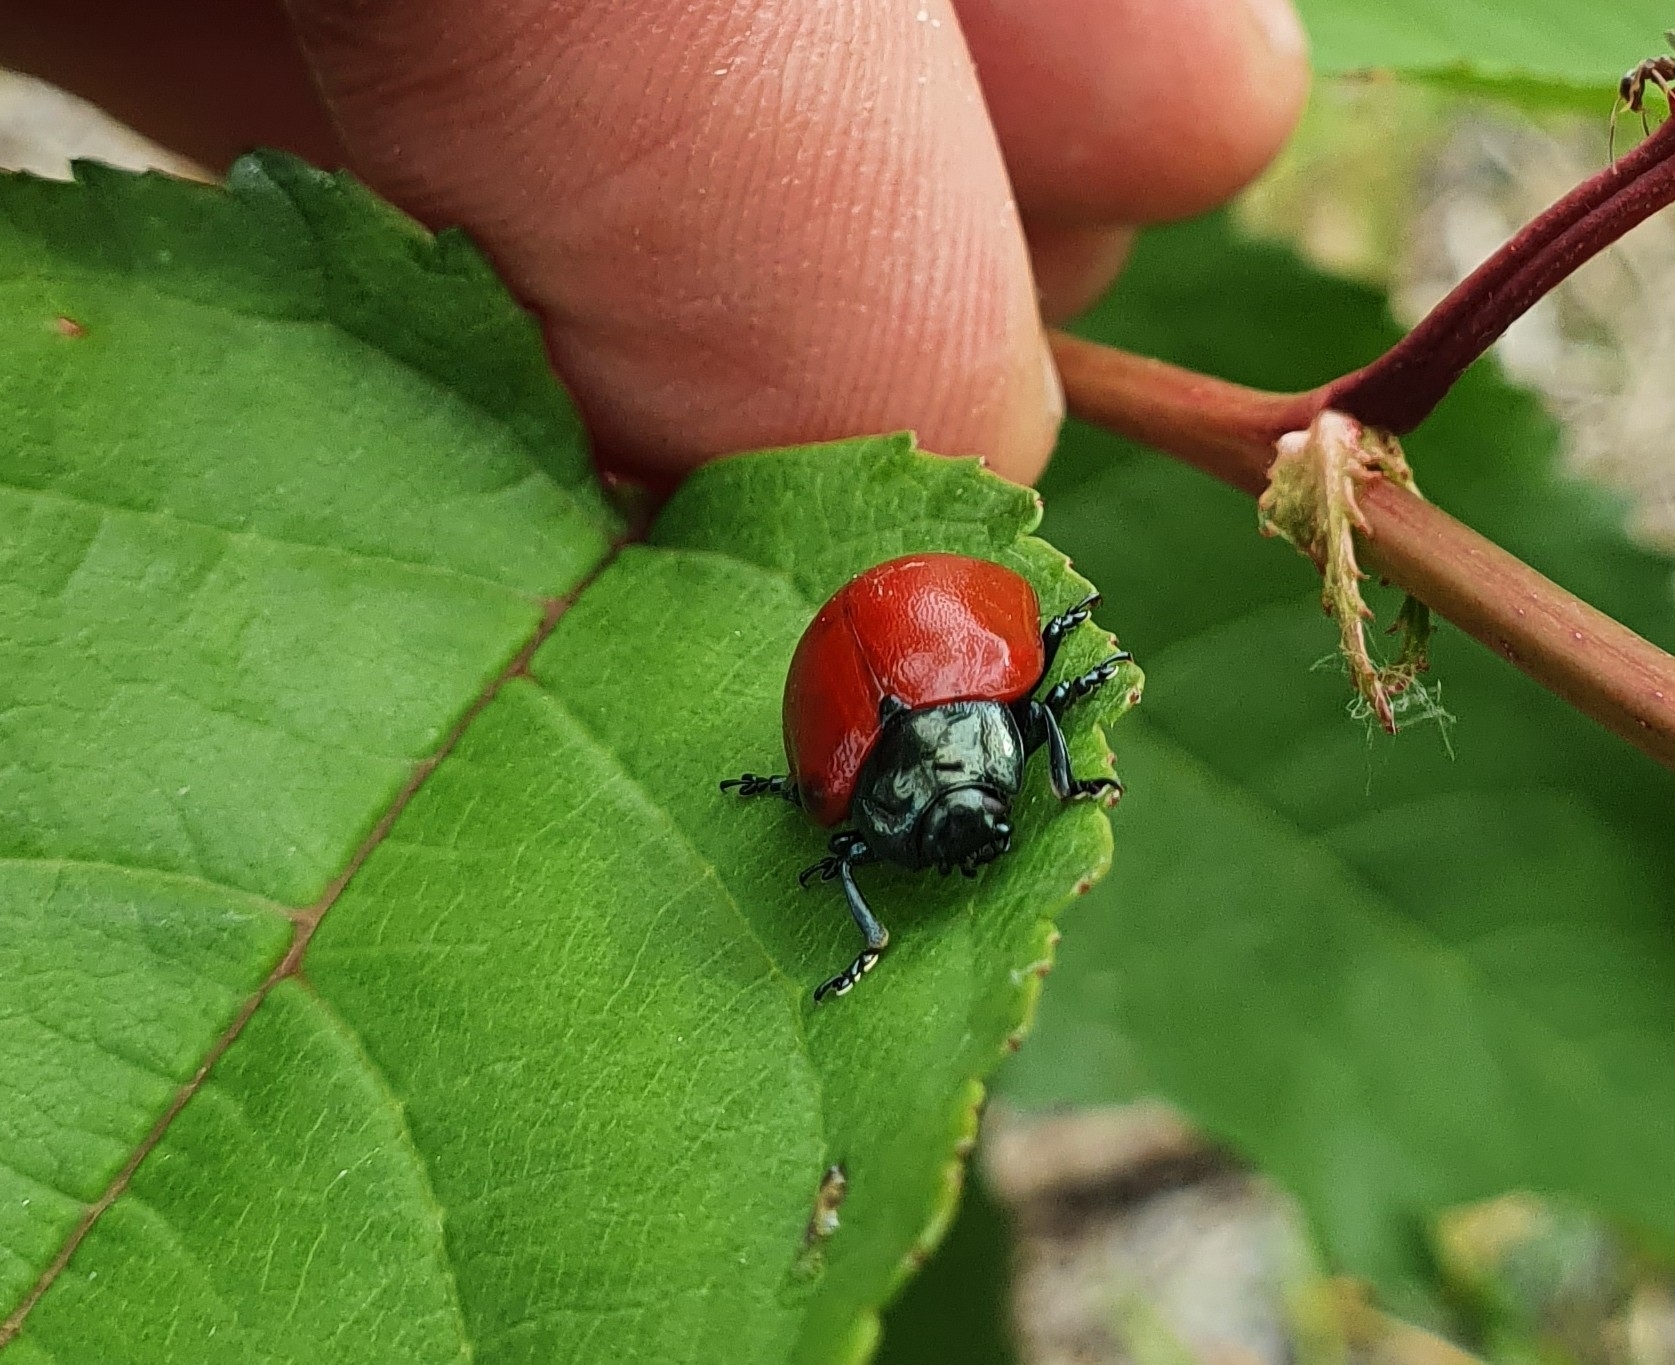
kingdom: Animalia
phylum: Arthropoda
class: Insecta
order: Coleoptera
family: Chrysomelidae
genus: Chrysomela
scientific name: Chrysomela populi
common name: Red poplar leaf beetle
